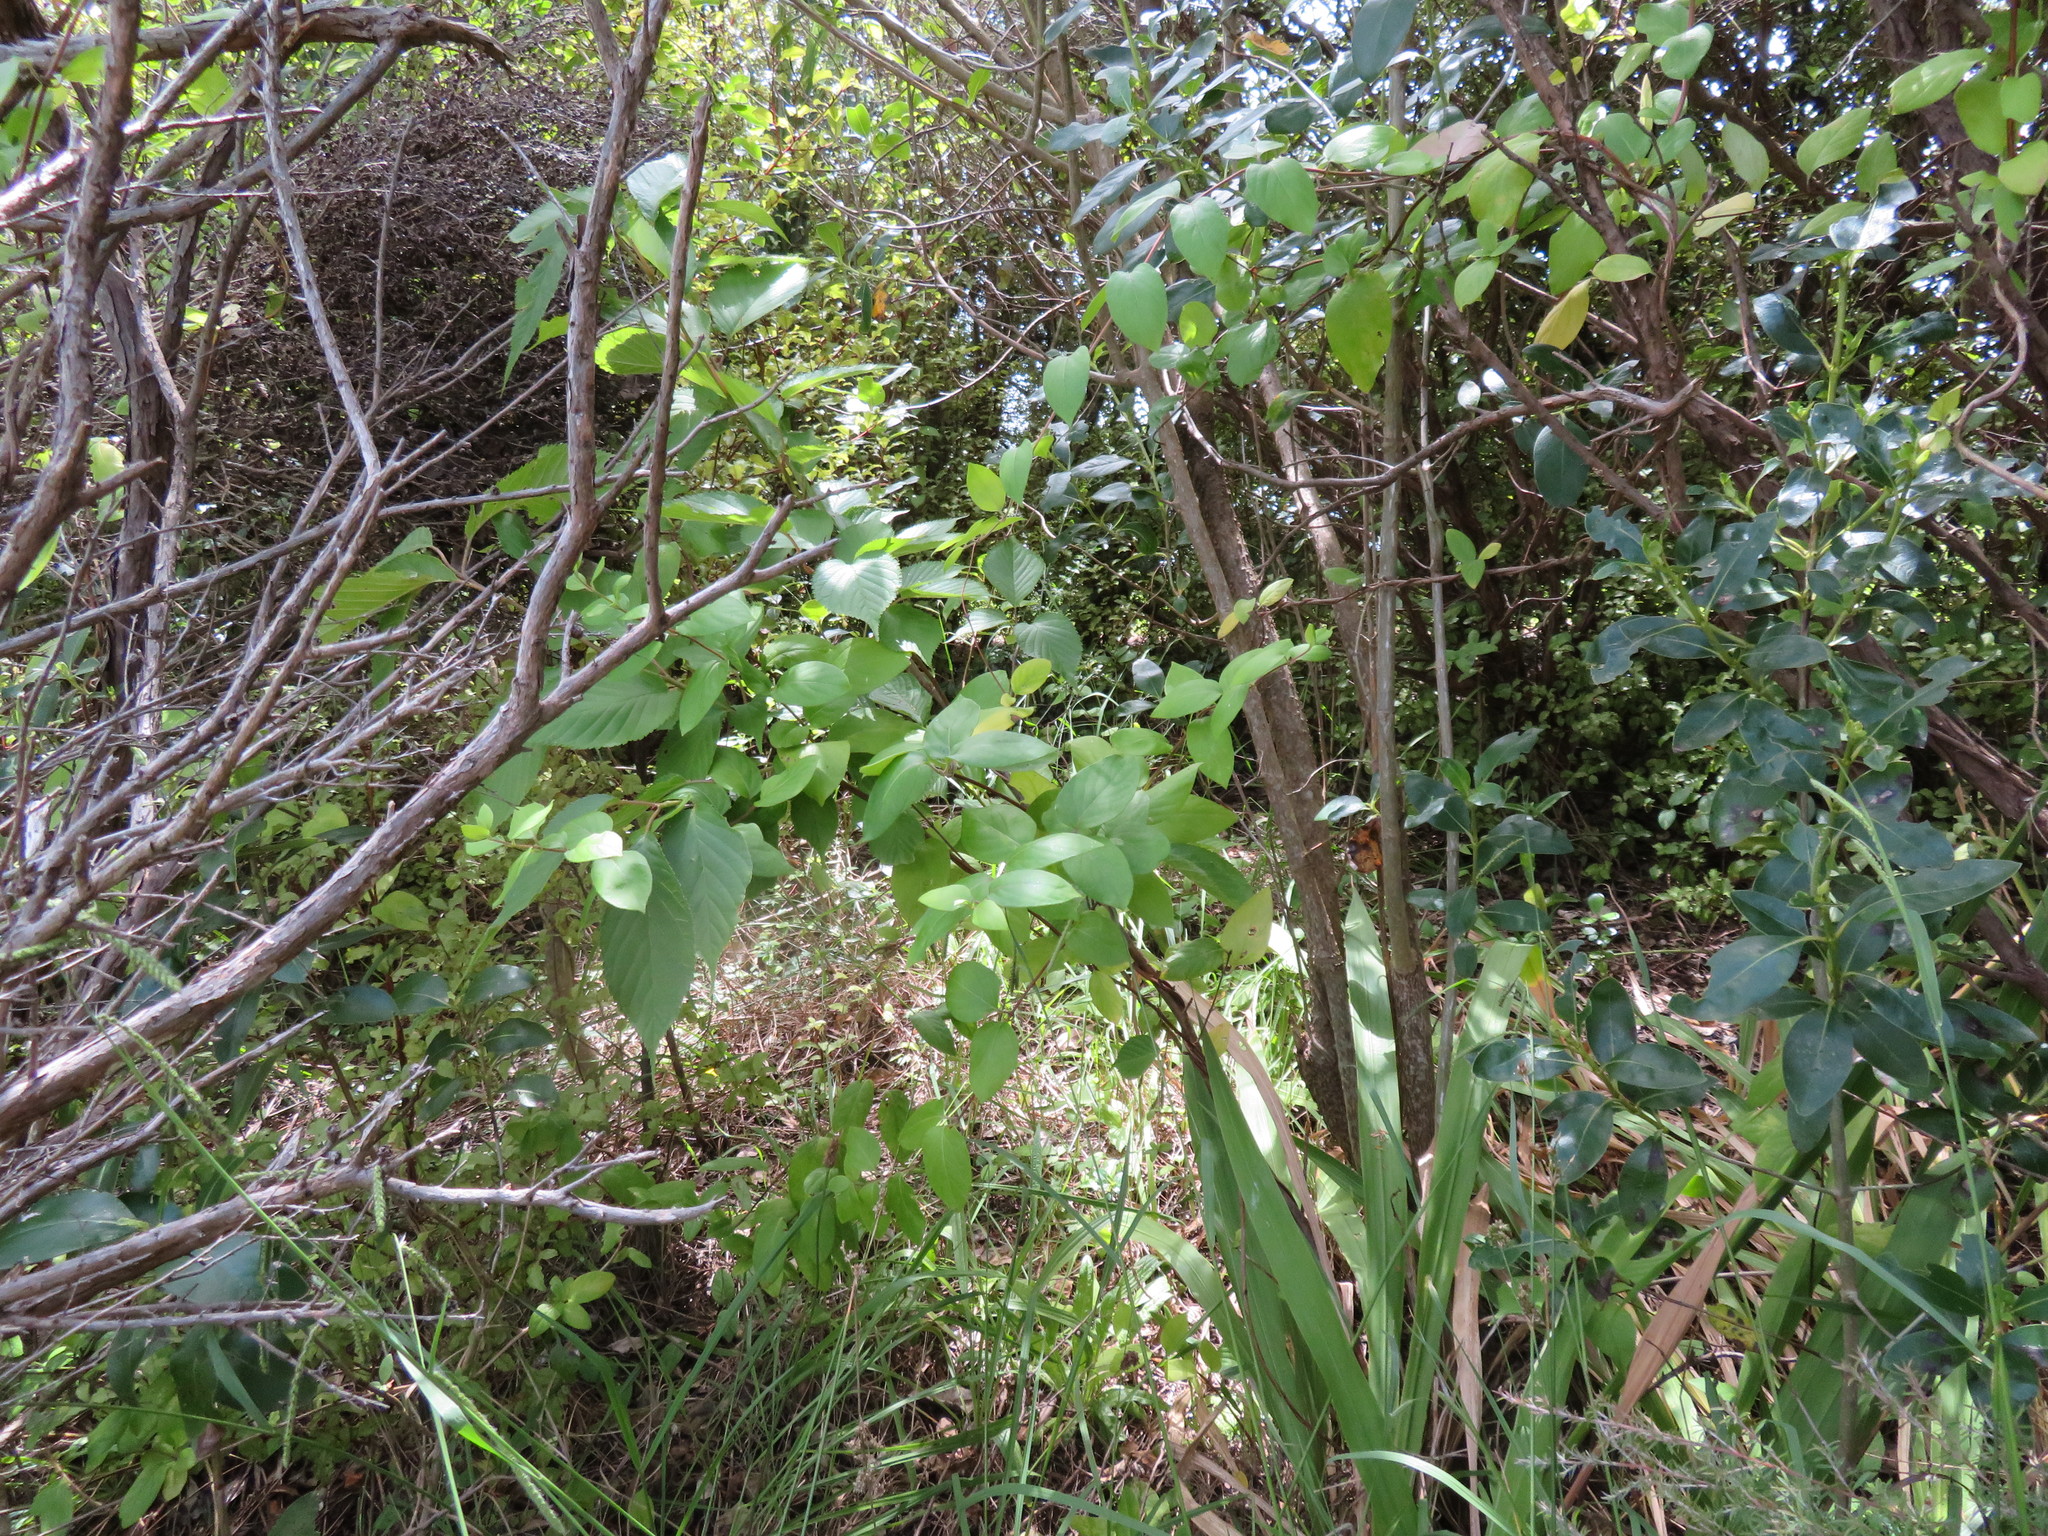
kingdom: Plantae
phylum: Tracheophyta
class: Magnoliopsida
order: Rosales
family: Rosaceae
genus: Prunus
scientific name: Prunus serrulata
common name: Japanese cherry
